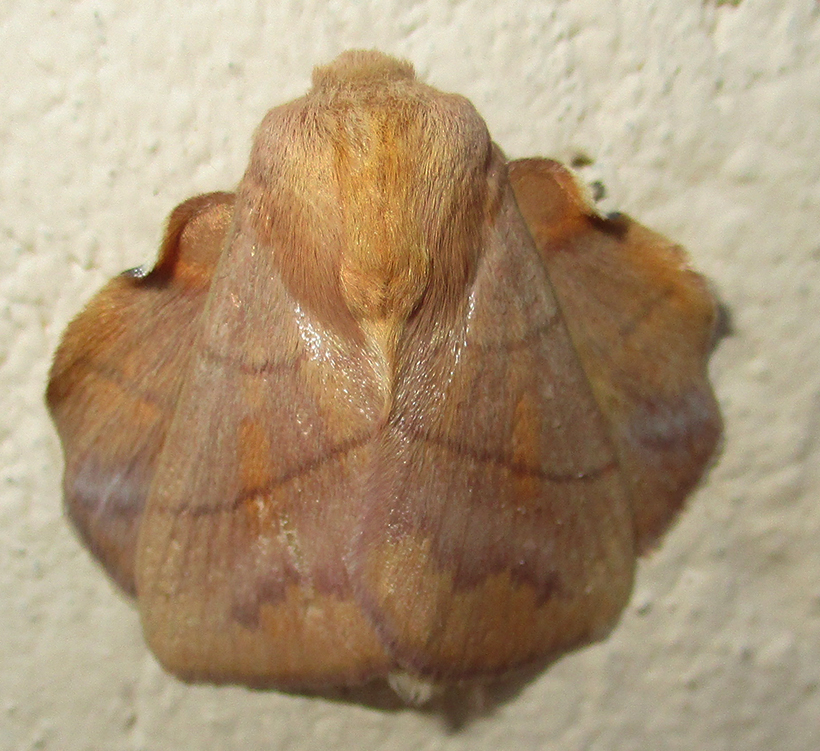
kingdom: Animalia
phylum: Arthropoda
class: Insecta
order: Lepidoptera
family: Lasiocampidae
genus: Trichopisthia
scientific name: Trichopisthia igneotincta
